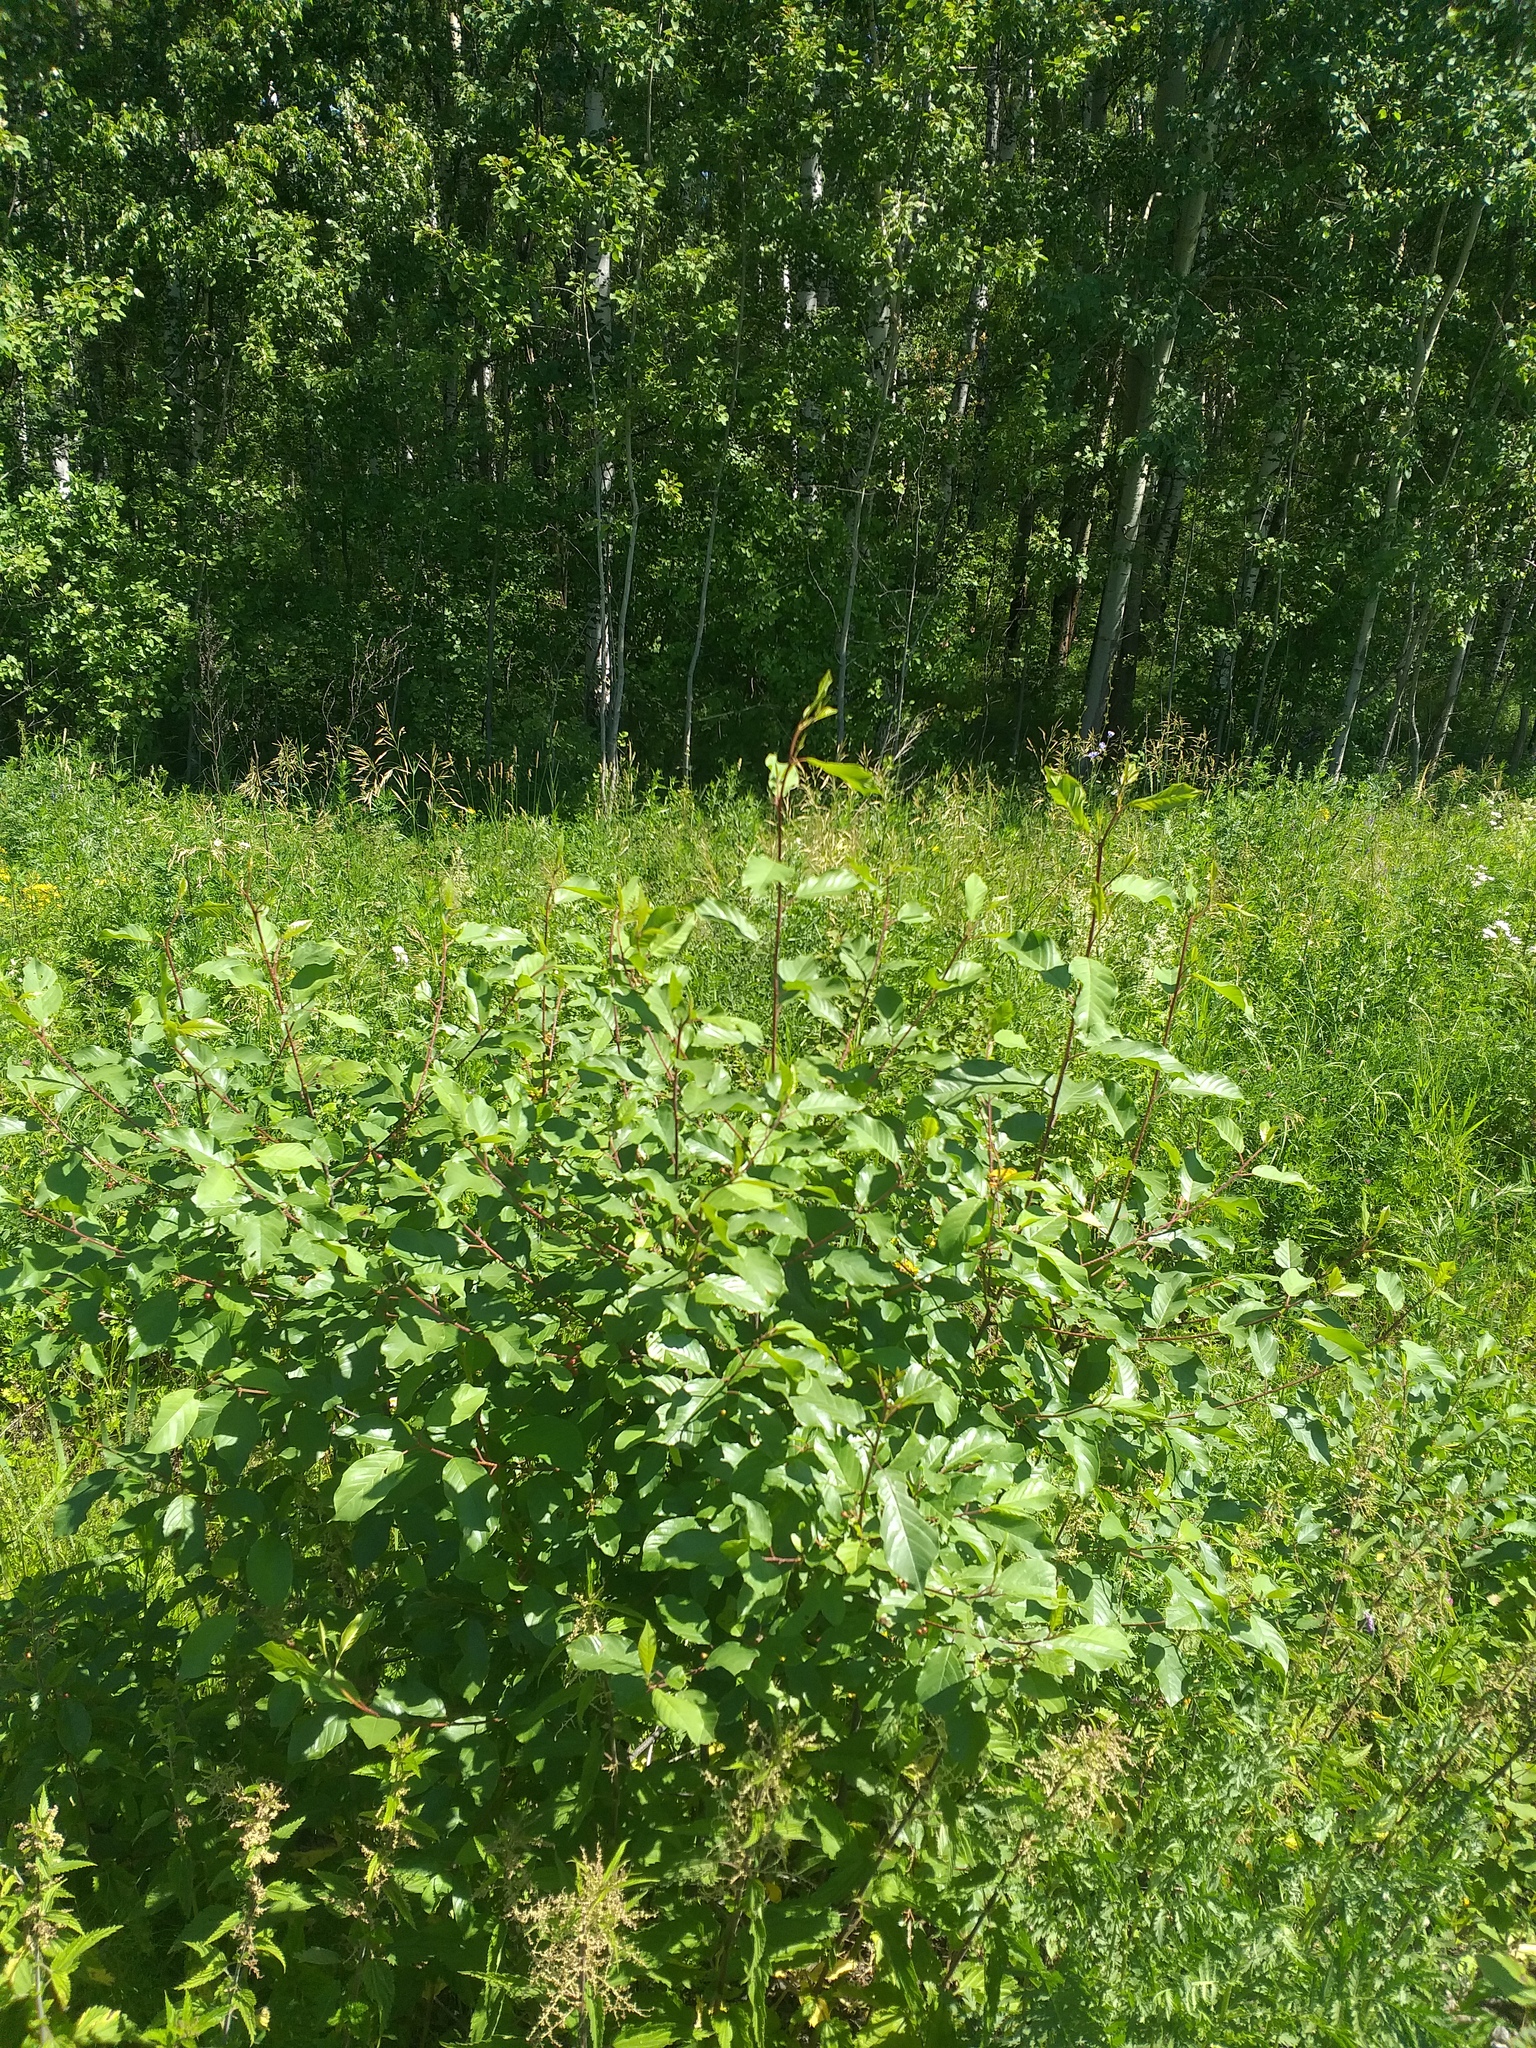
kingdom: Plantae
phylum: Tracheophyta
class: Magnoliopsida
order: Rosales
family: Rhamnaceae
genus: Frangula
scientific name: Frangula alnus
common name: Alder buckthorn
